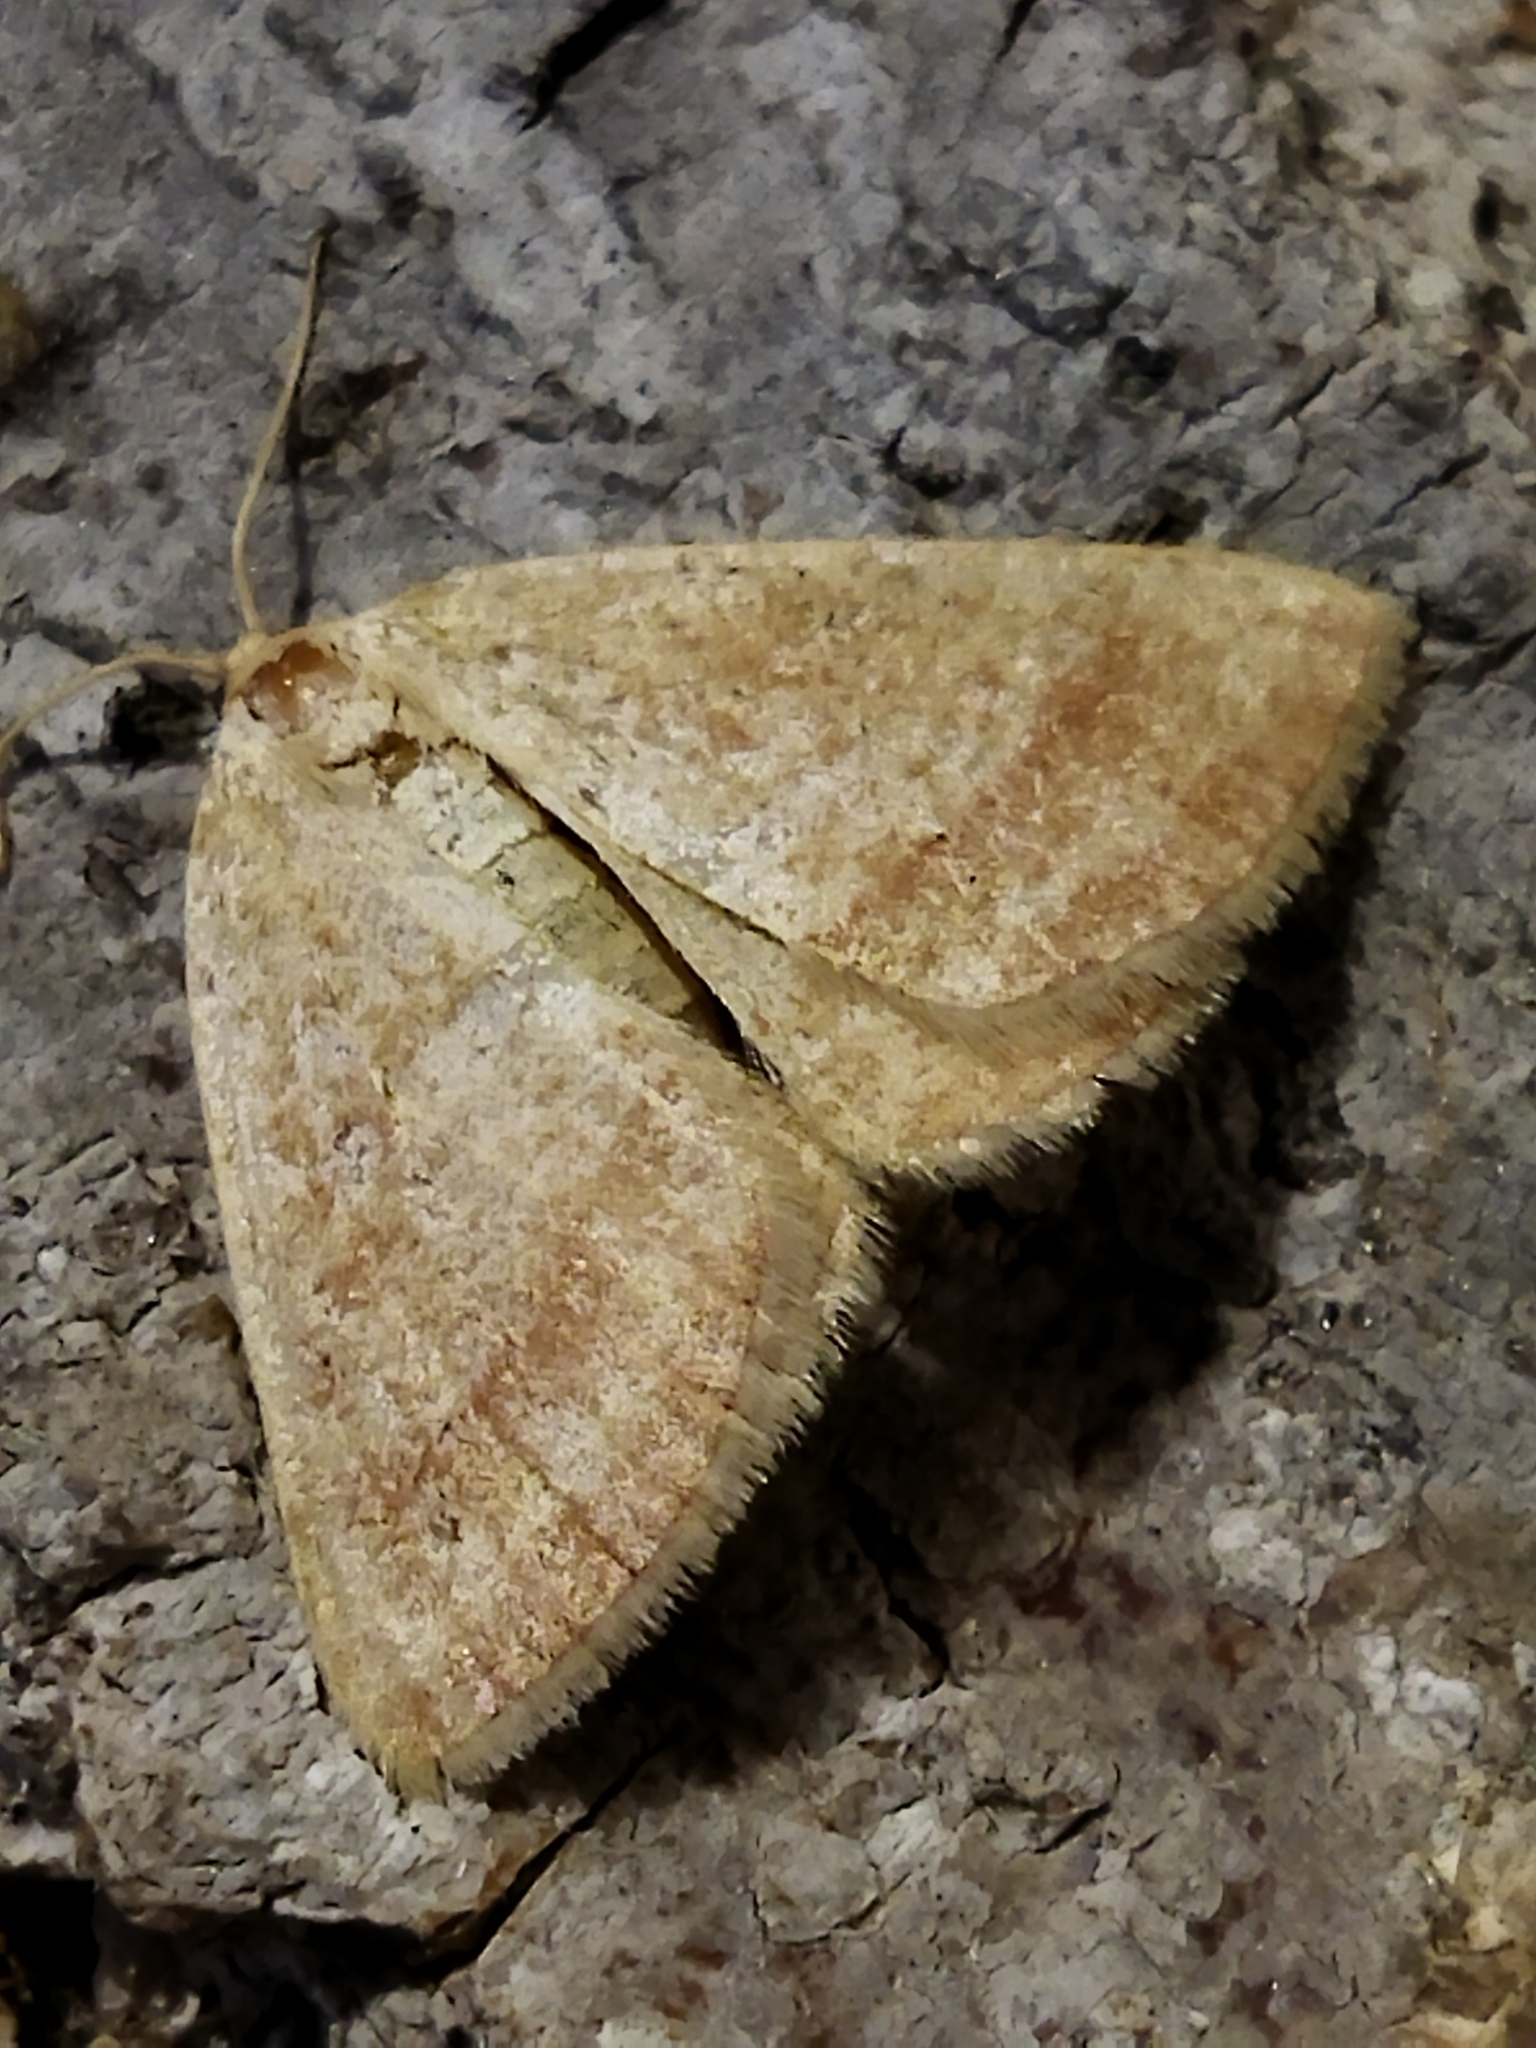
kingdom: Animalia
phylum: Arthropoda
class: Insecta
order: Lepidoptera
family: Geometridae
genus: Aplasta
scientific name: Aplasta ononaria
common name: Rest harrow
